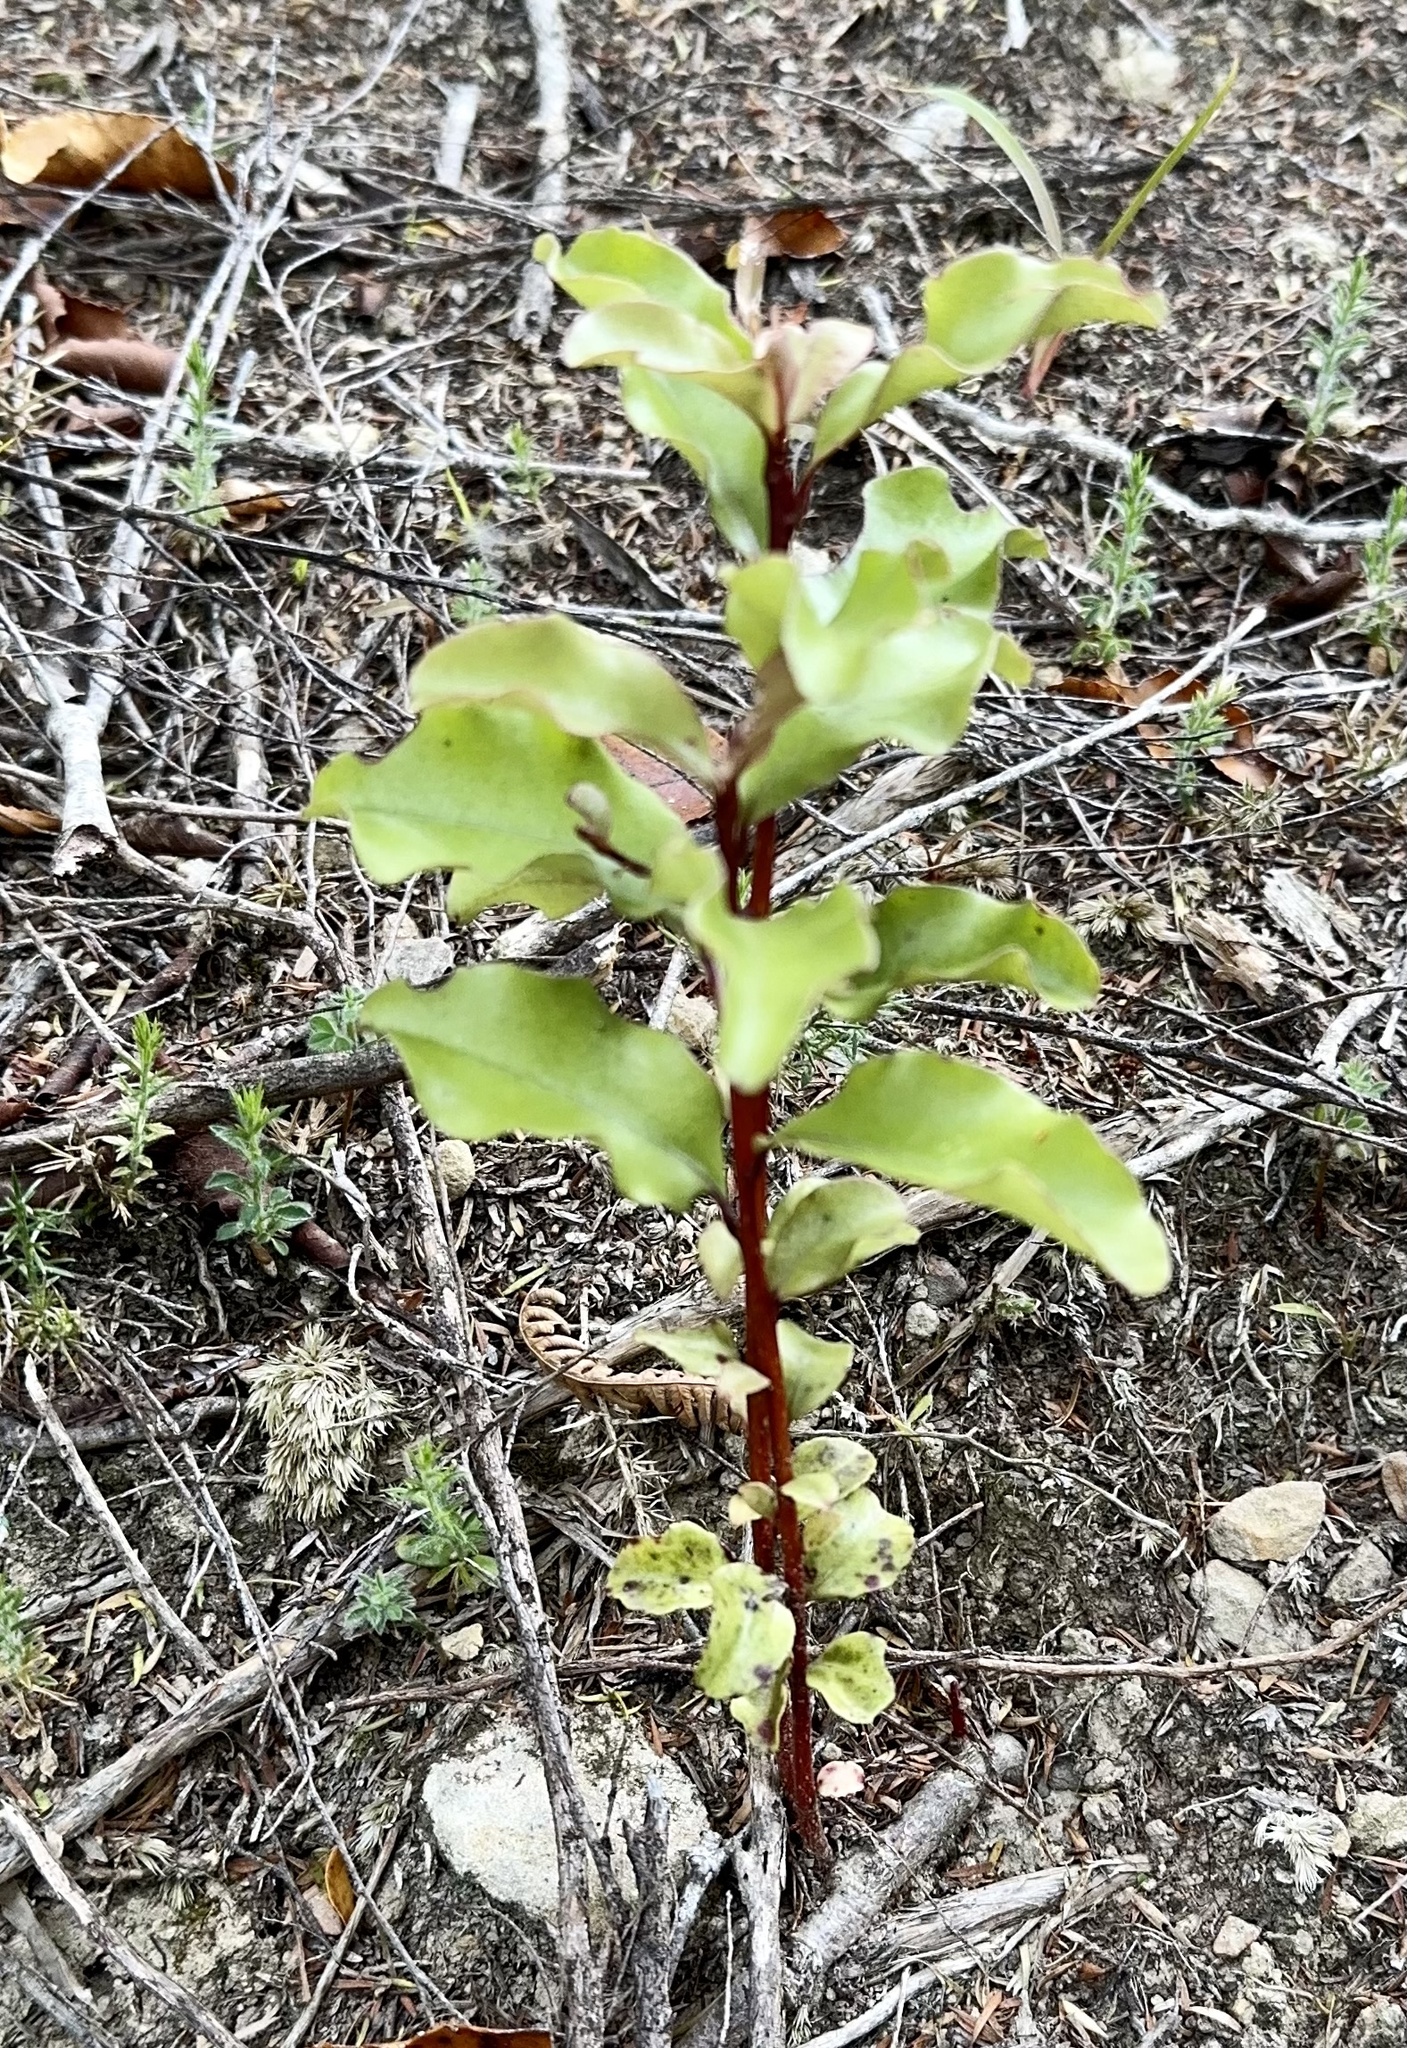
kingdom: Plantae
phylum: Tracheophyta
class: Magnoliopsida
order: Ericales
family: Primulaceae
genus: Myrsine
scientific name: Myrsine australis
